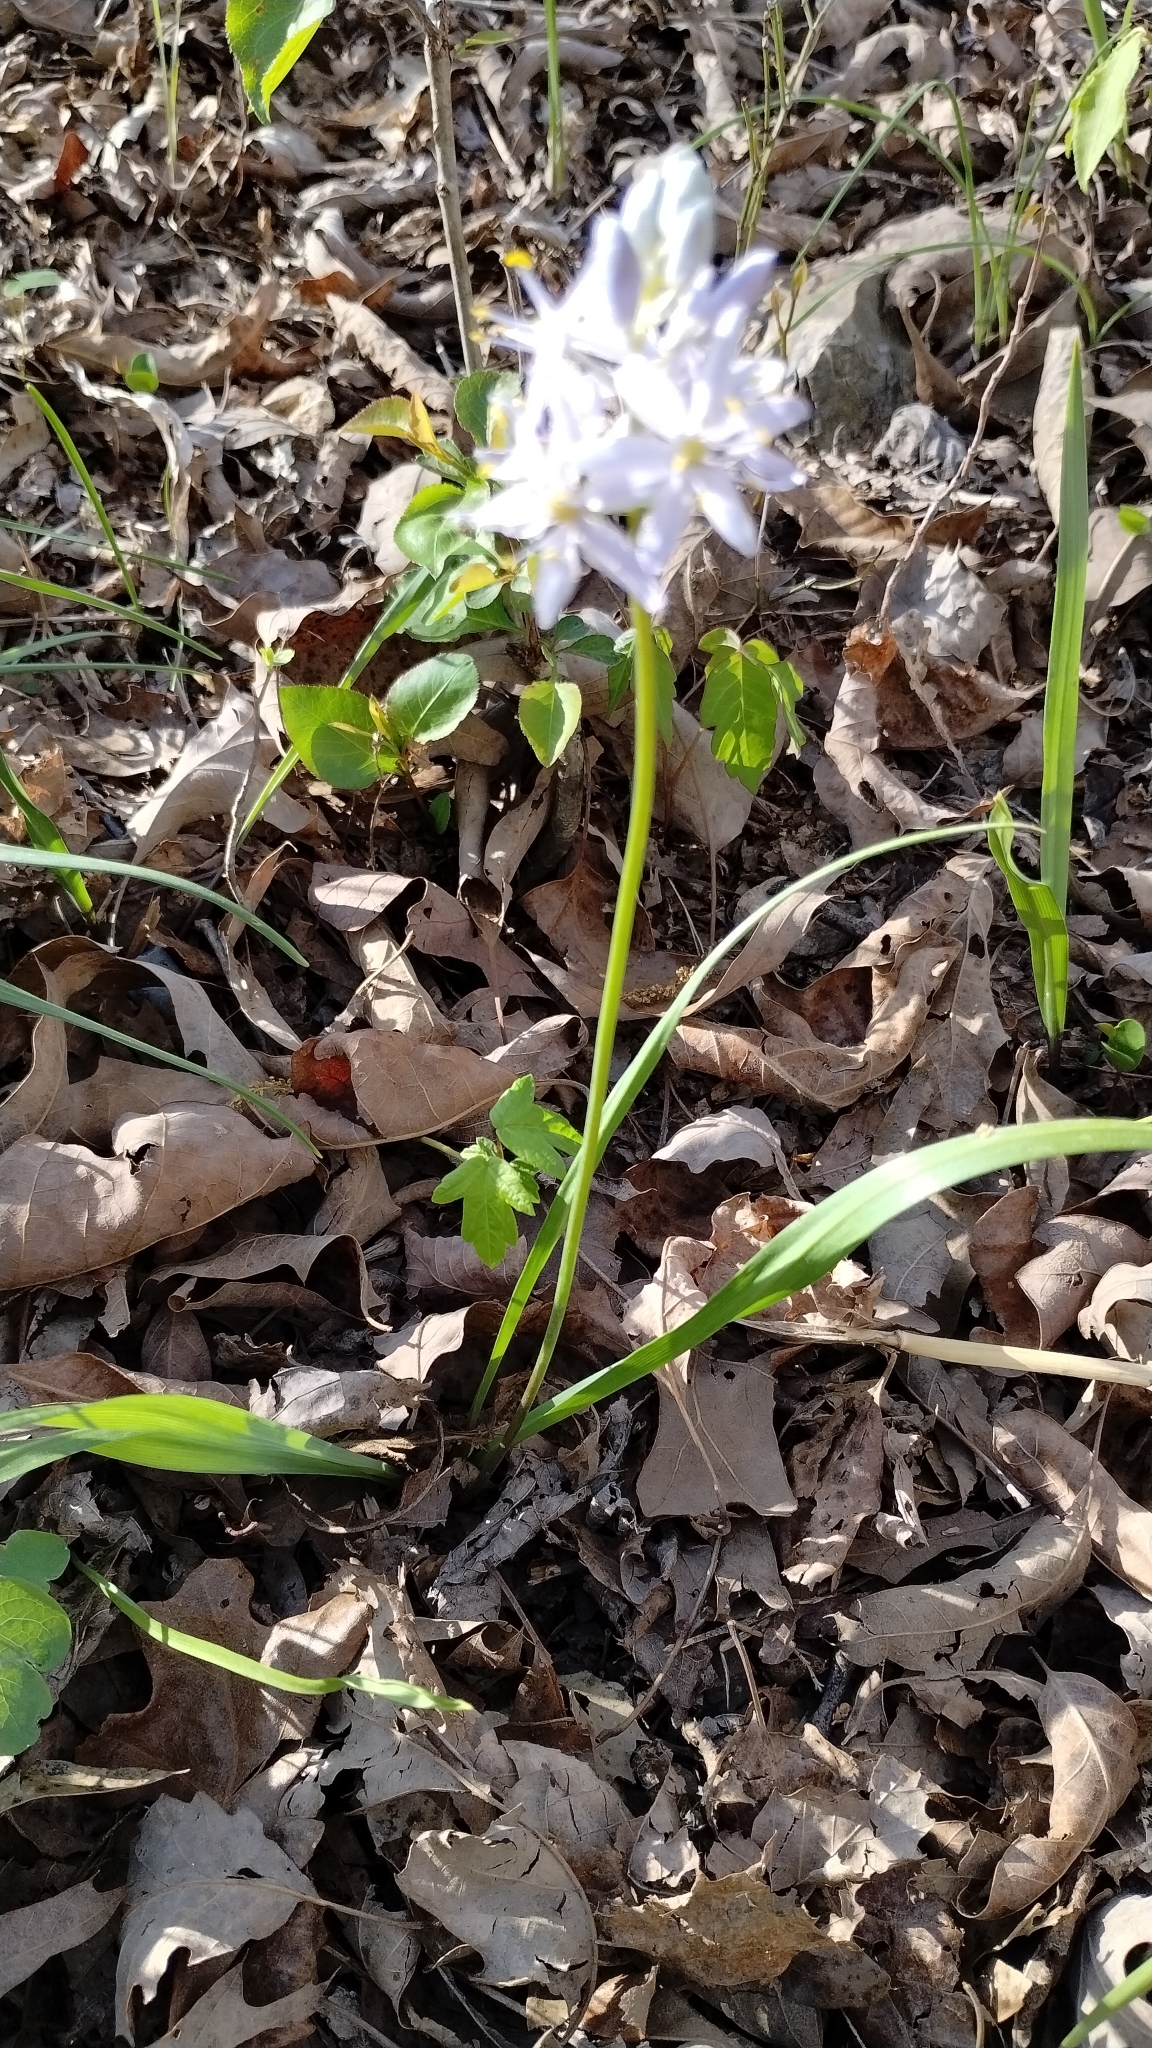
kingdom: Plantae
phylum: Tracheophyta
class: Liliopsida
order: Asparagales
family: Asparagaceae
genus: Camassia
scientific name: Camassia scilloides
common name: Wild hyacinth
